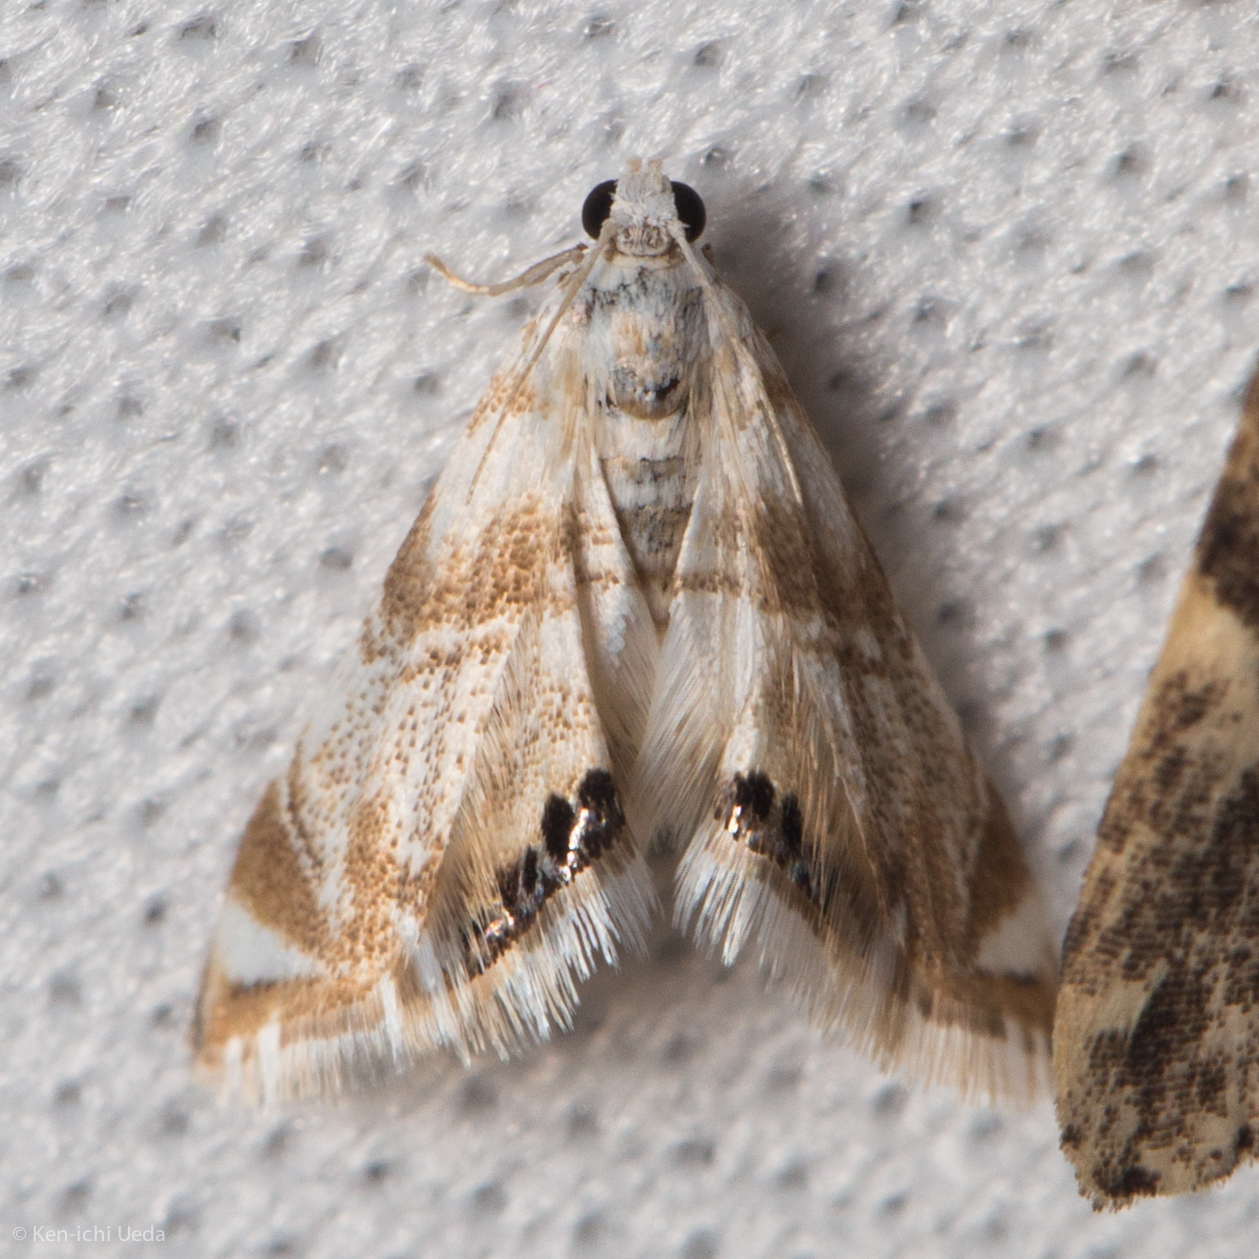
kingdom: Animalia
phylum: Arthropoda
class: Insecta
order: Lepidoptera
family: Crambidae
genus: Eoparargyractis
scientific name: Eoparargyractis plevie
